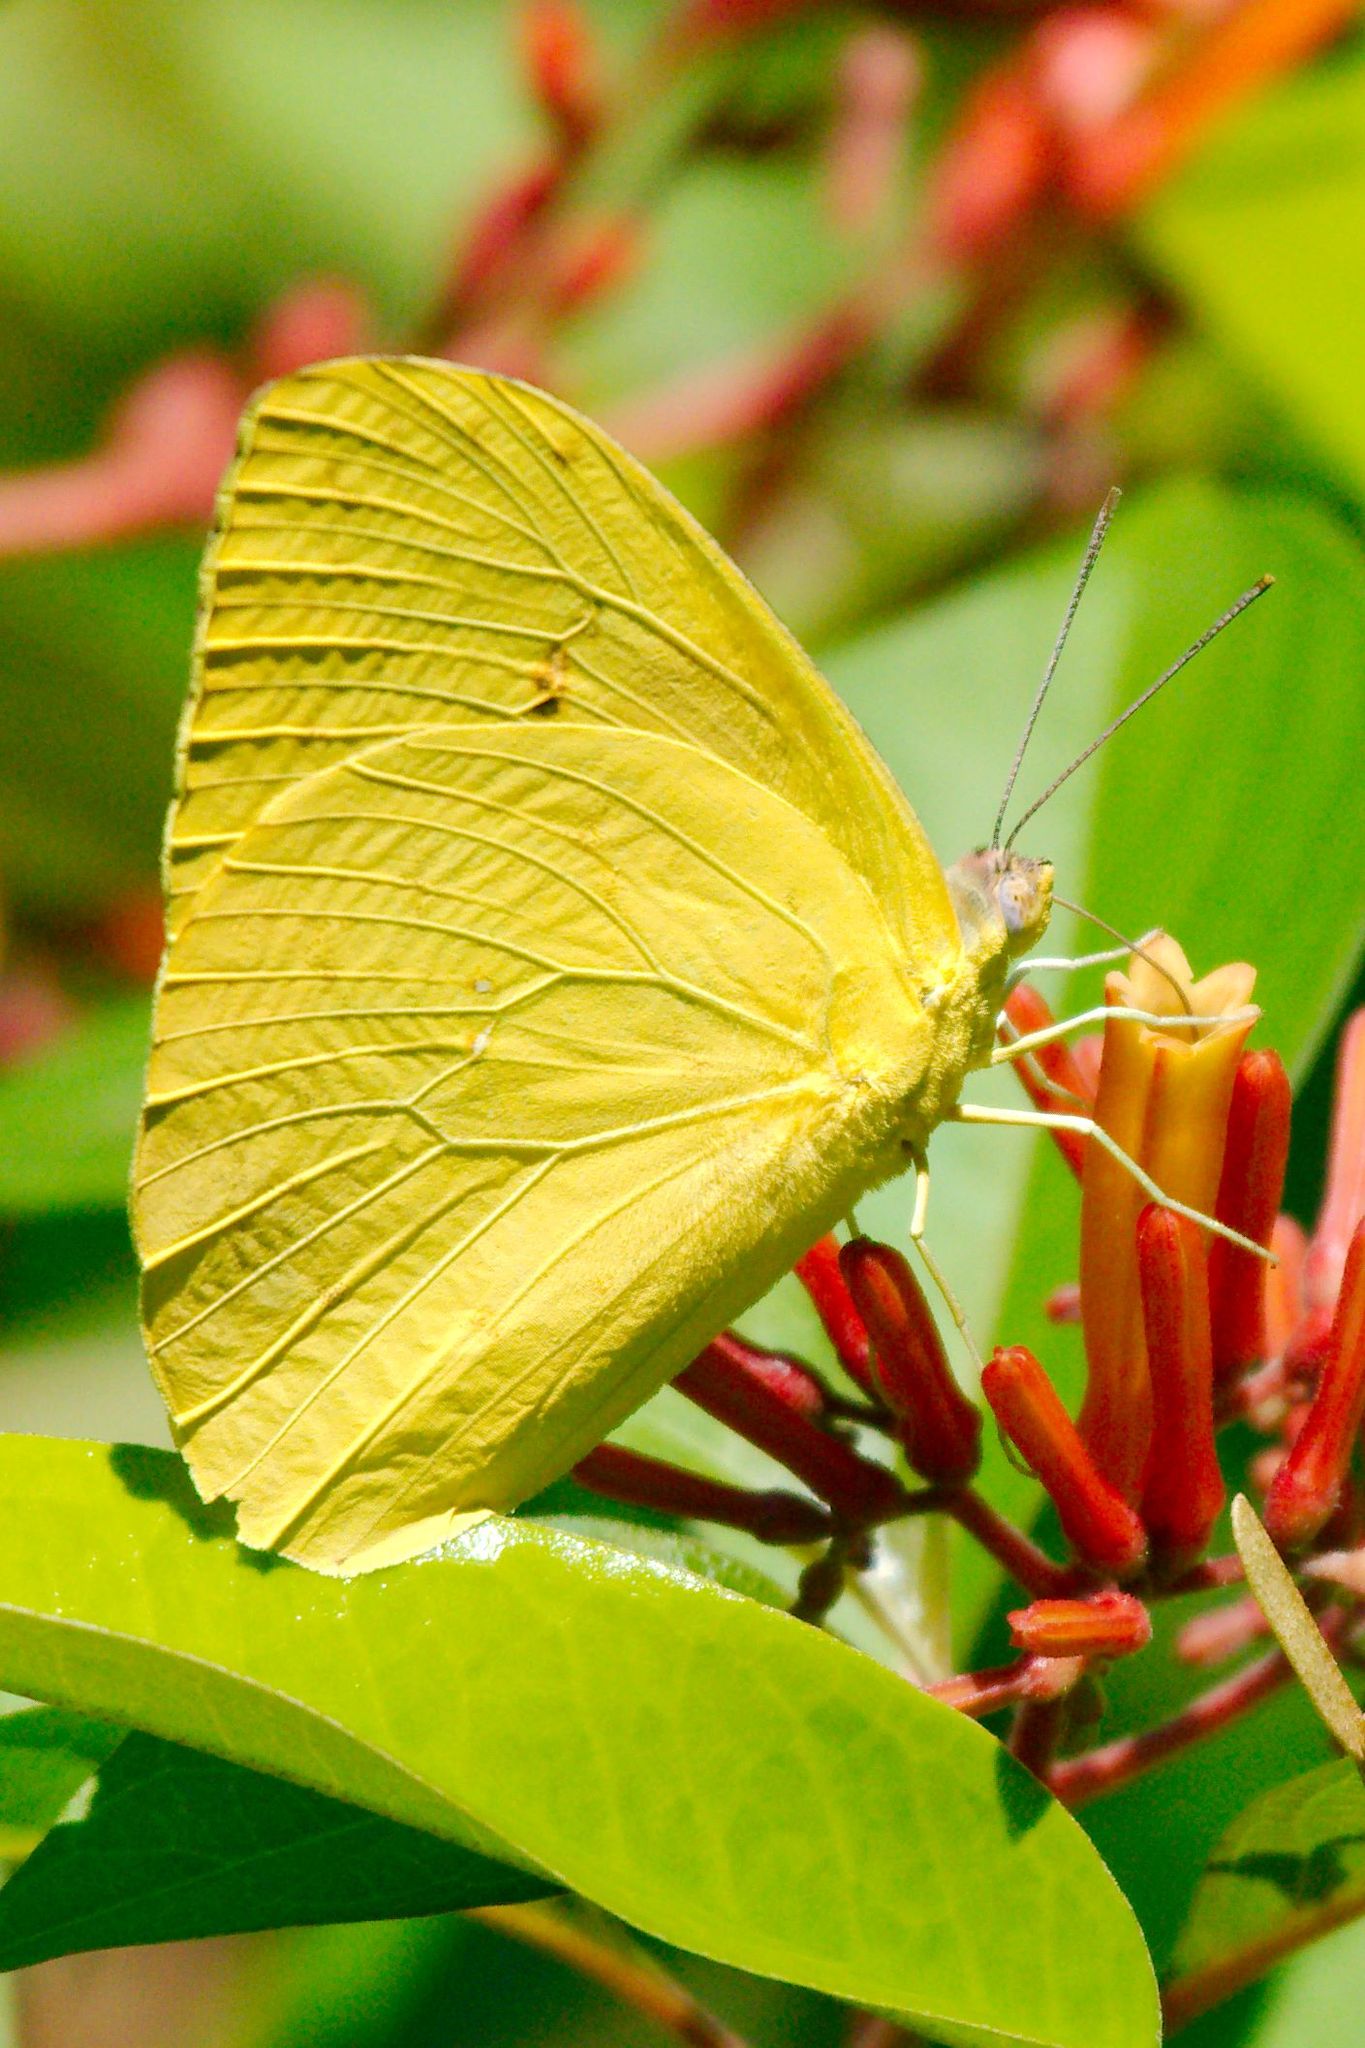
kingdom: Animalia
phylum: Arthropoda
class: Insecta
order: Lepidoptera
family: Pieridae
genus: Phoebis
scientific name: Phoebis philea
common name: Orange-barred giant sulphur
